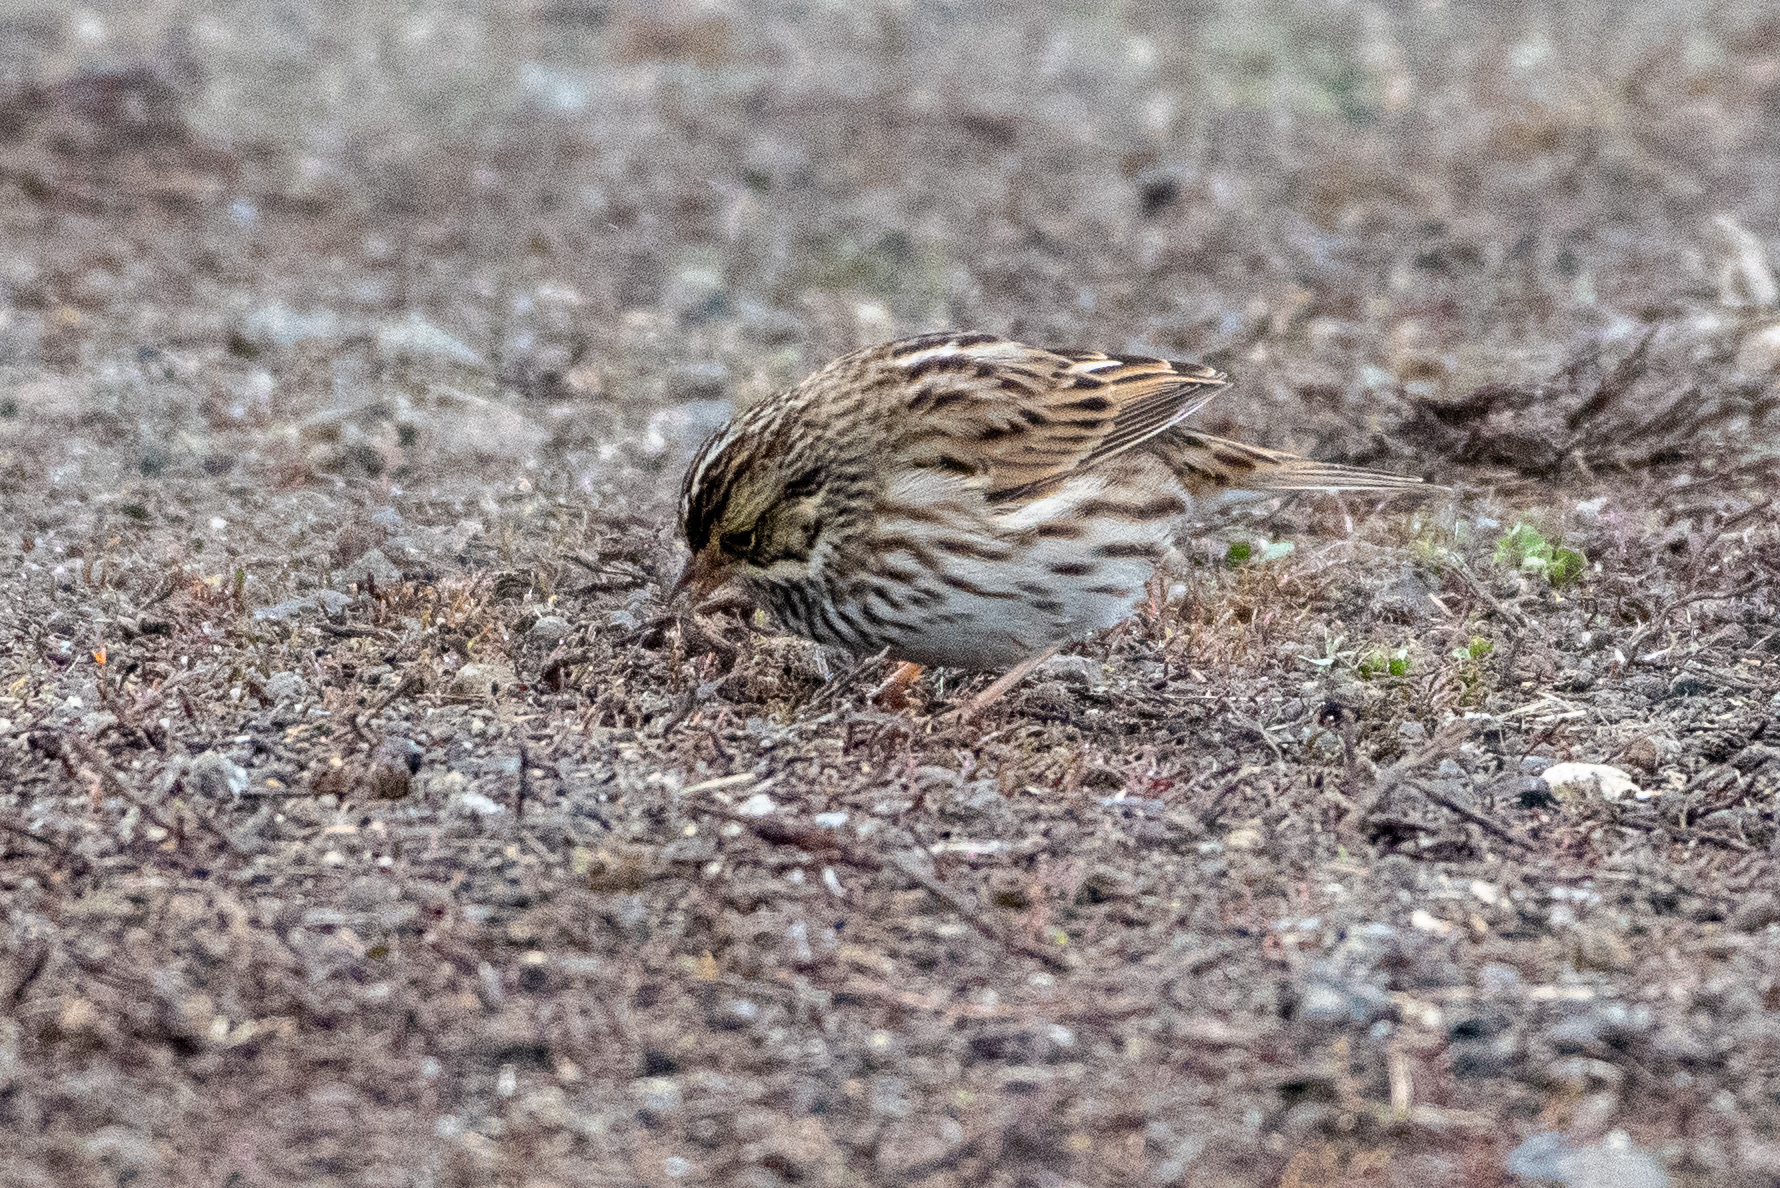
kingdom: Animalia
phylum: Chordata
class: Aves
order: Passeriformes
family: Passerellidae
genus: Passerculus
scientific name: Passerculus sandwichensis
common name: Savannah sparrow
